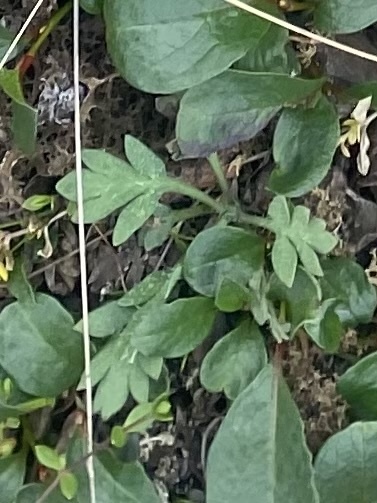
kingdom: Plantae
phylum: Tracheophyta
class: Magnoliopsida
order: Ranunculales
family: Papaveraceae
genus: Papaver
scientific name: Papaver pulvinatum
